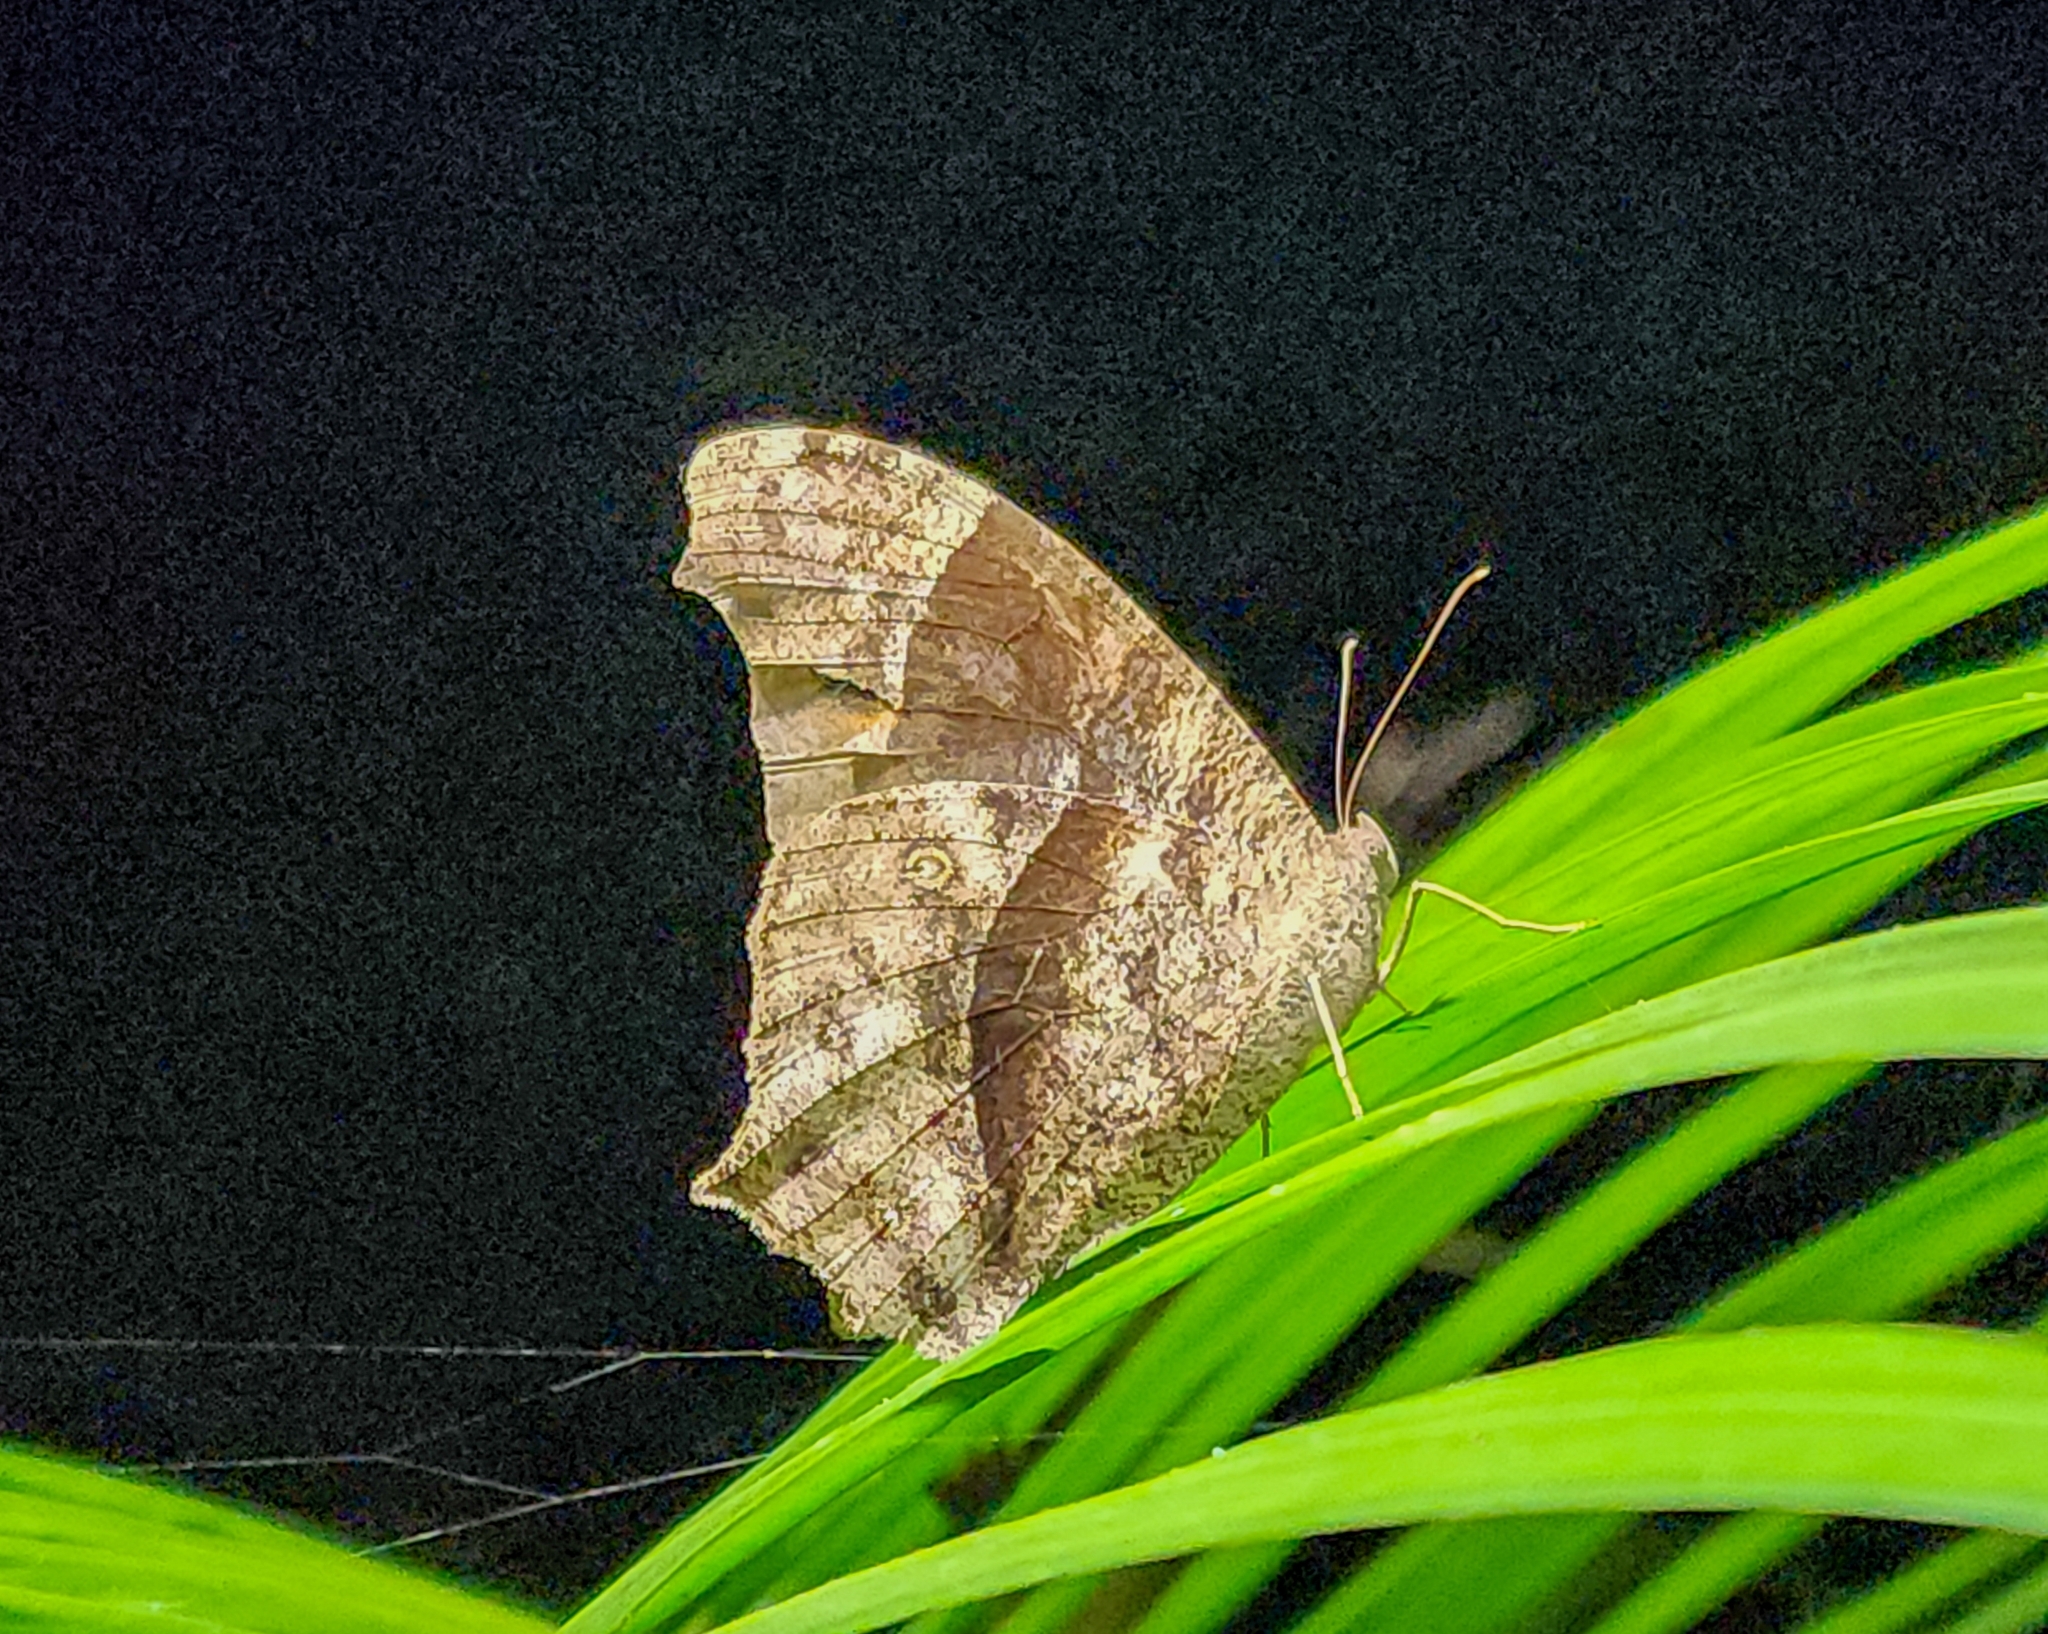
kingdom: Animalia
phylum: Arthropoda
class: Insecta
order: Lepidoptera
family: Nymphalidae
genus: Melanitis
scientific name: Melanitis leda
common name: Twilight brown
